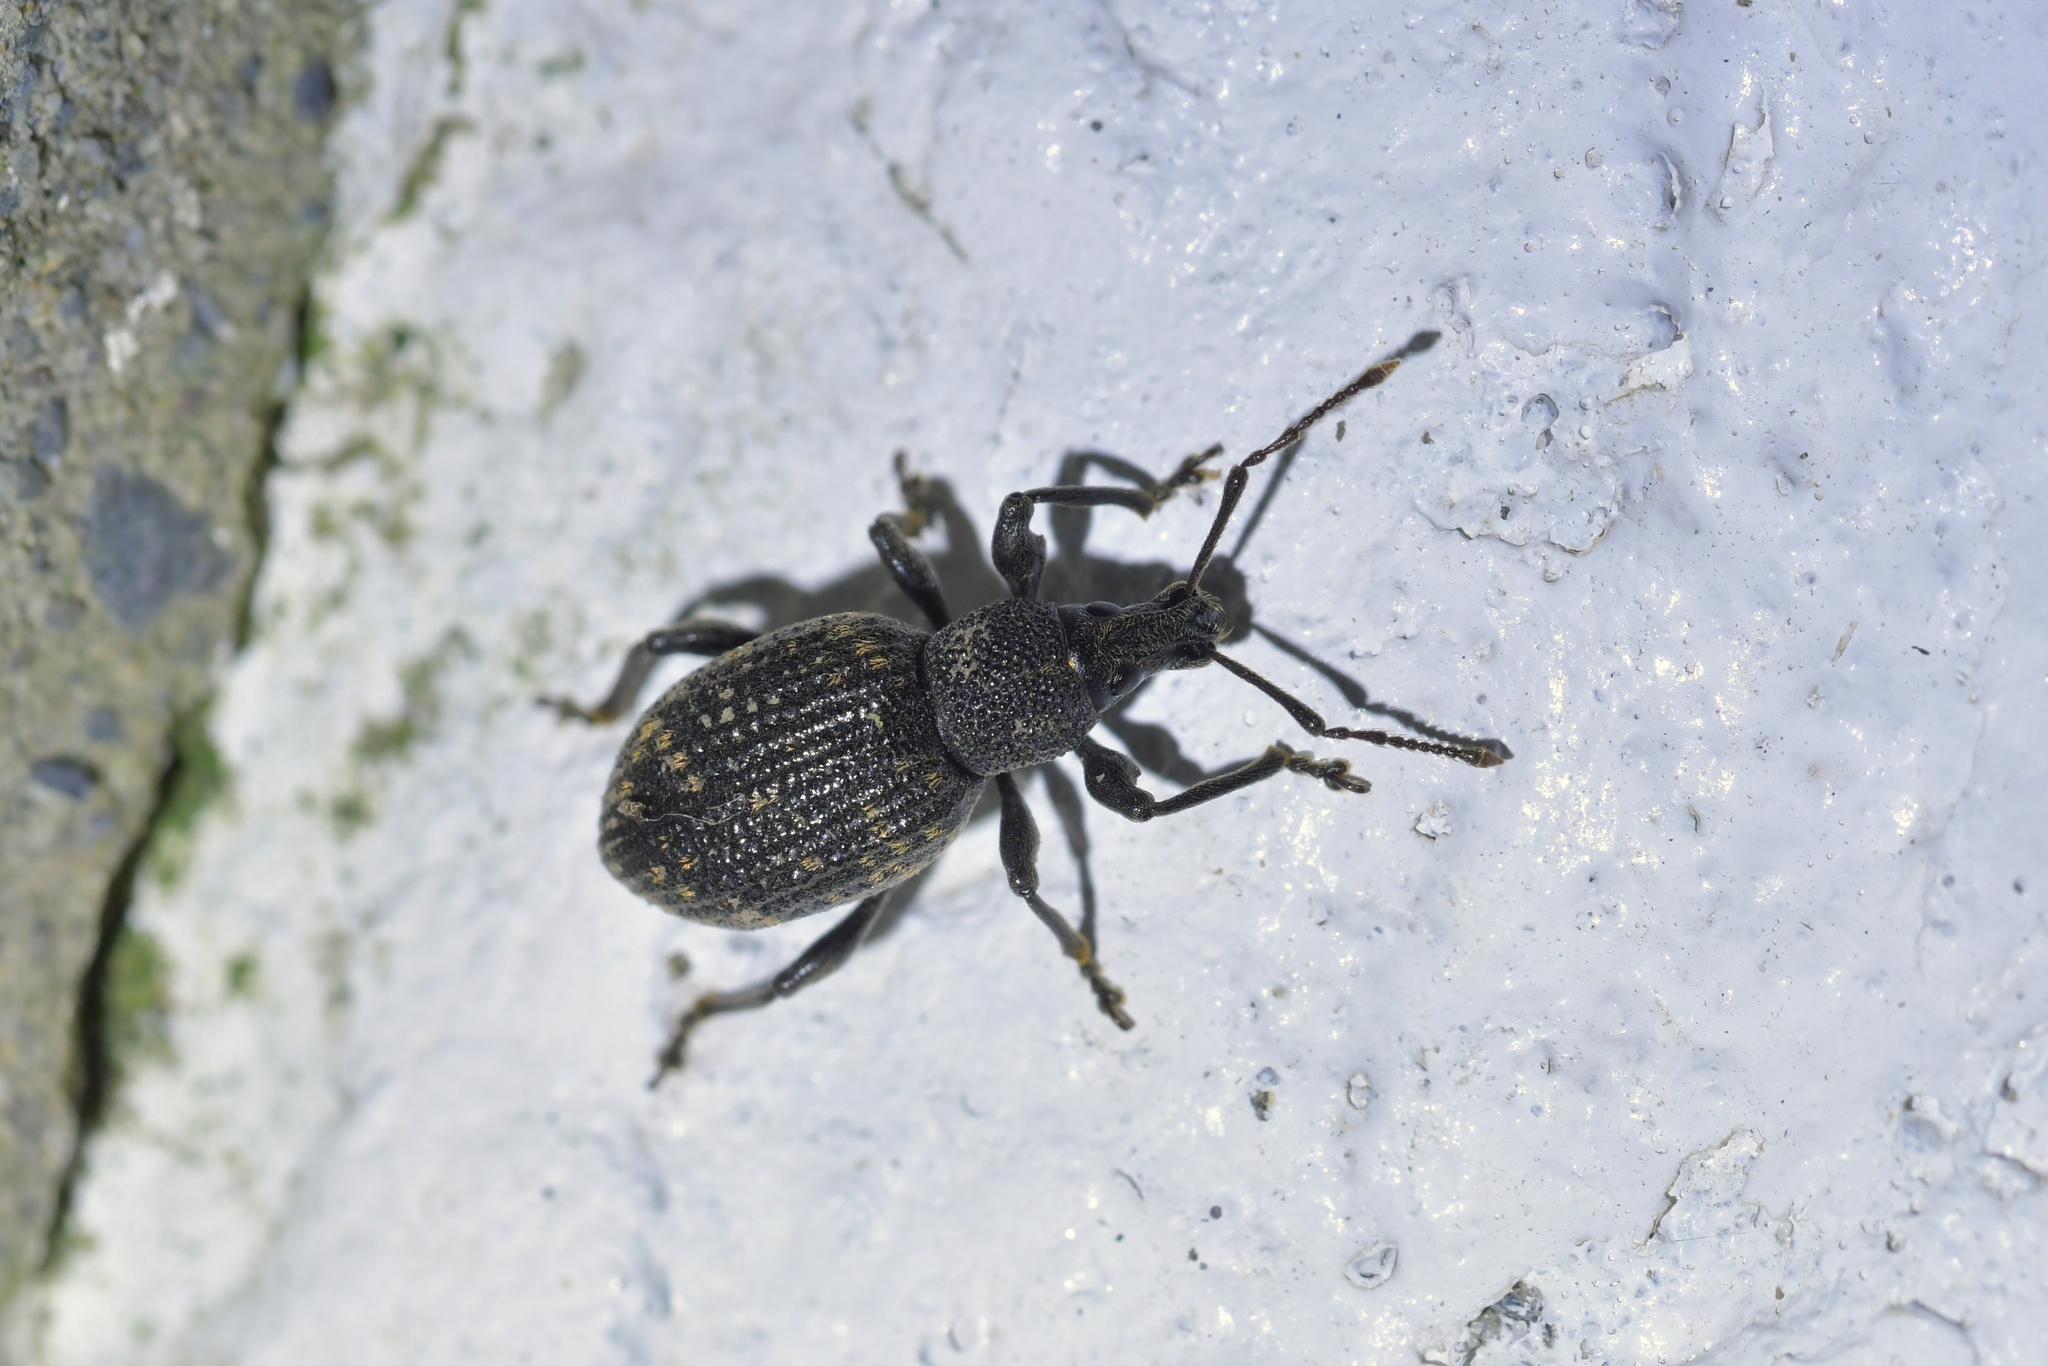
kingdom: Animalia
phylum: Arthropoda
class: Insecta
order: Coleoptera
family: Curculionidae
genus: Otiorhynchus
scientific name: Otiorhynchus sulcatus
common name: Black vine weevil
